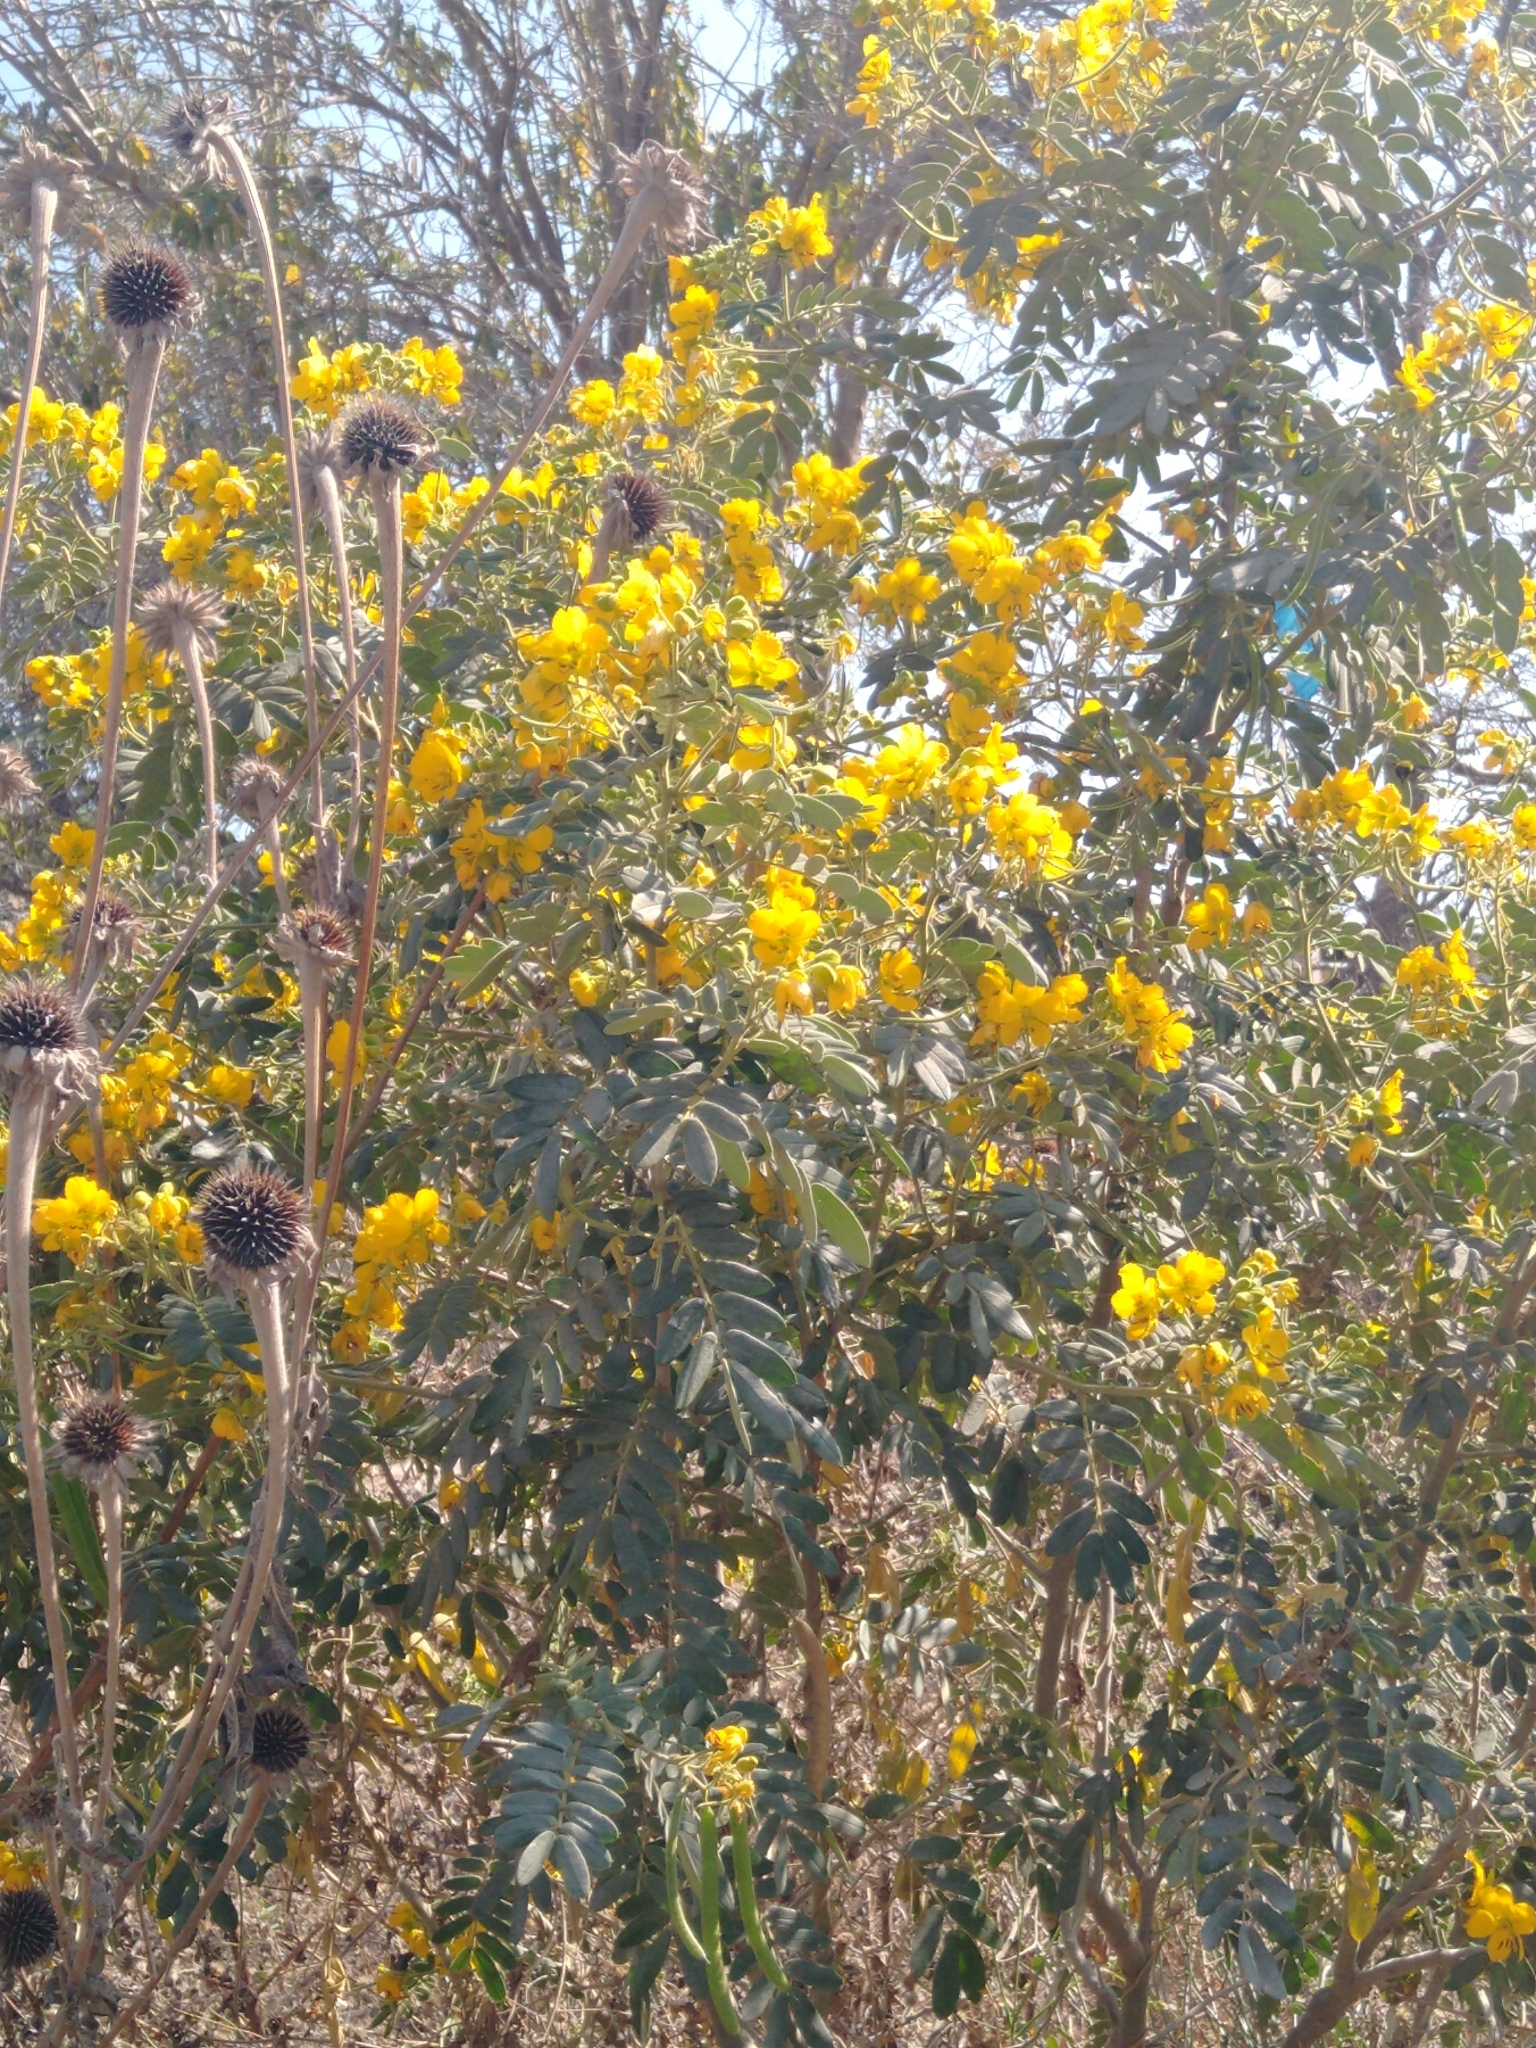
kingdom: Plantae
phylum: Tracheophyta
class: Magnoliopsida
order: Fabales
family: Fabaceae
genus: Senna
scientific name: Senna multiglandulosa
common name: Glandular senna
